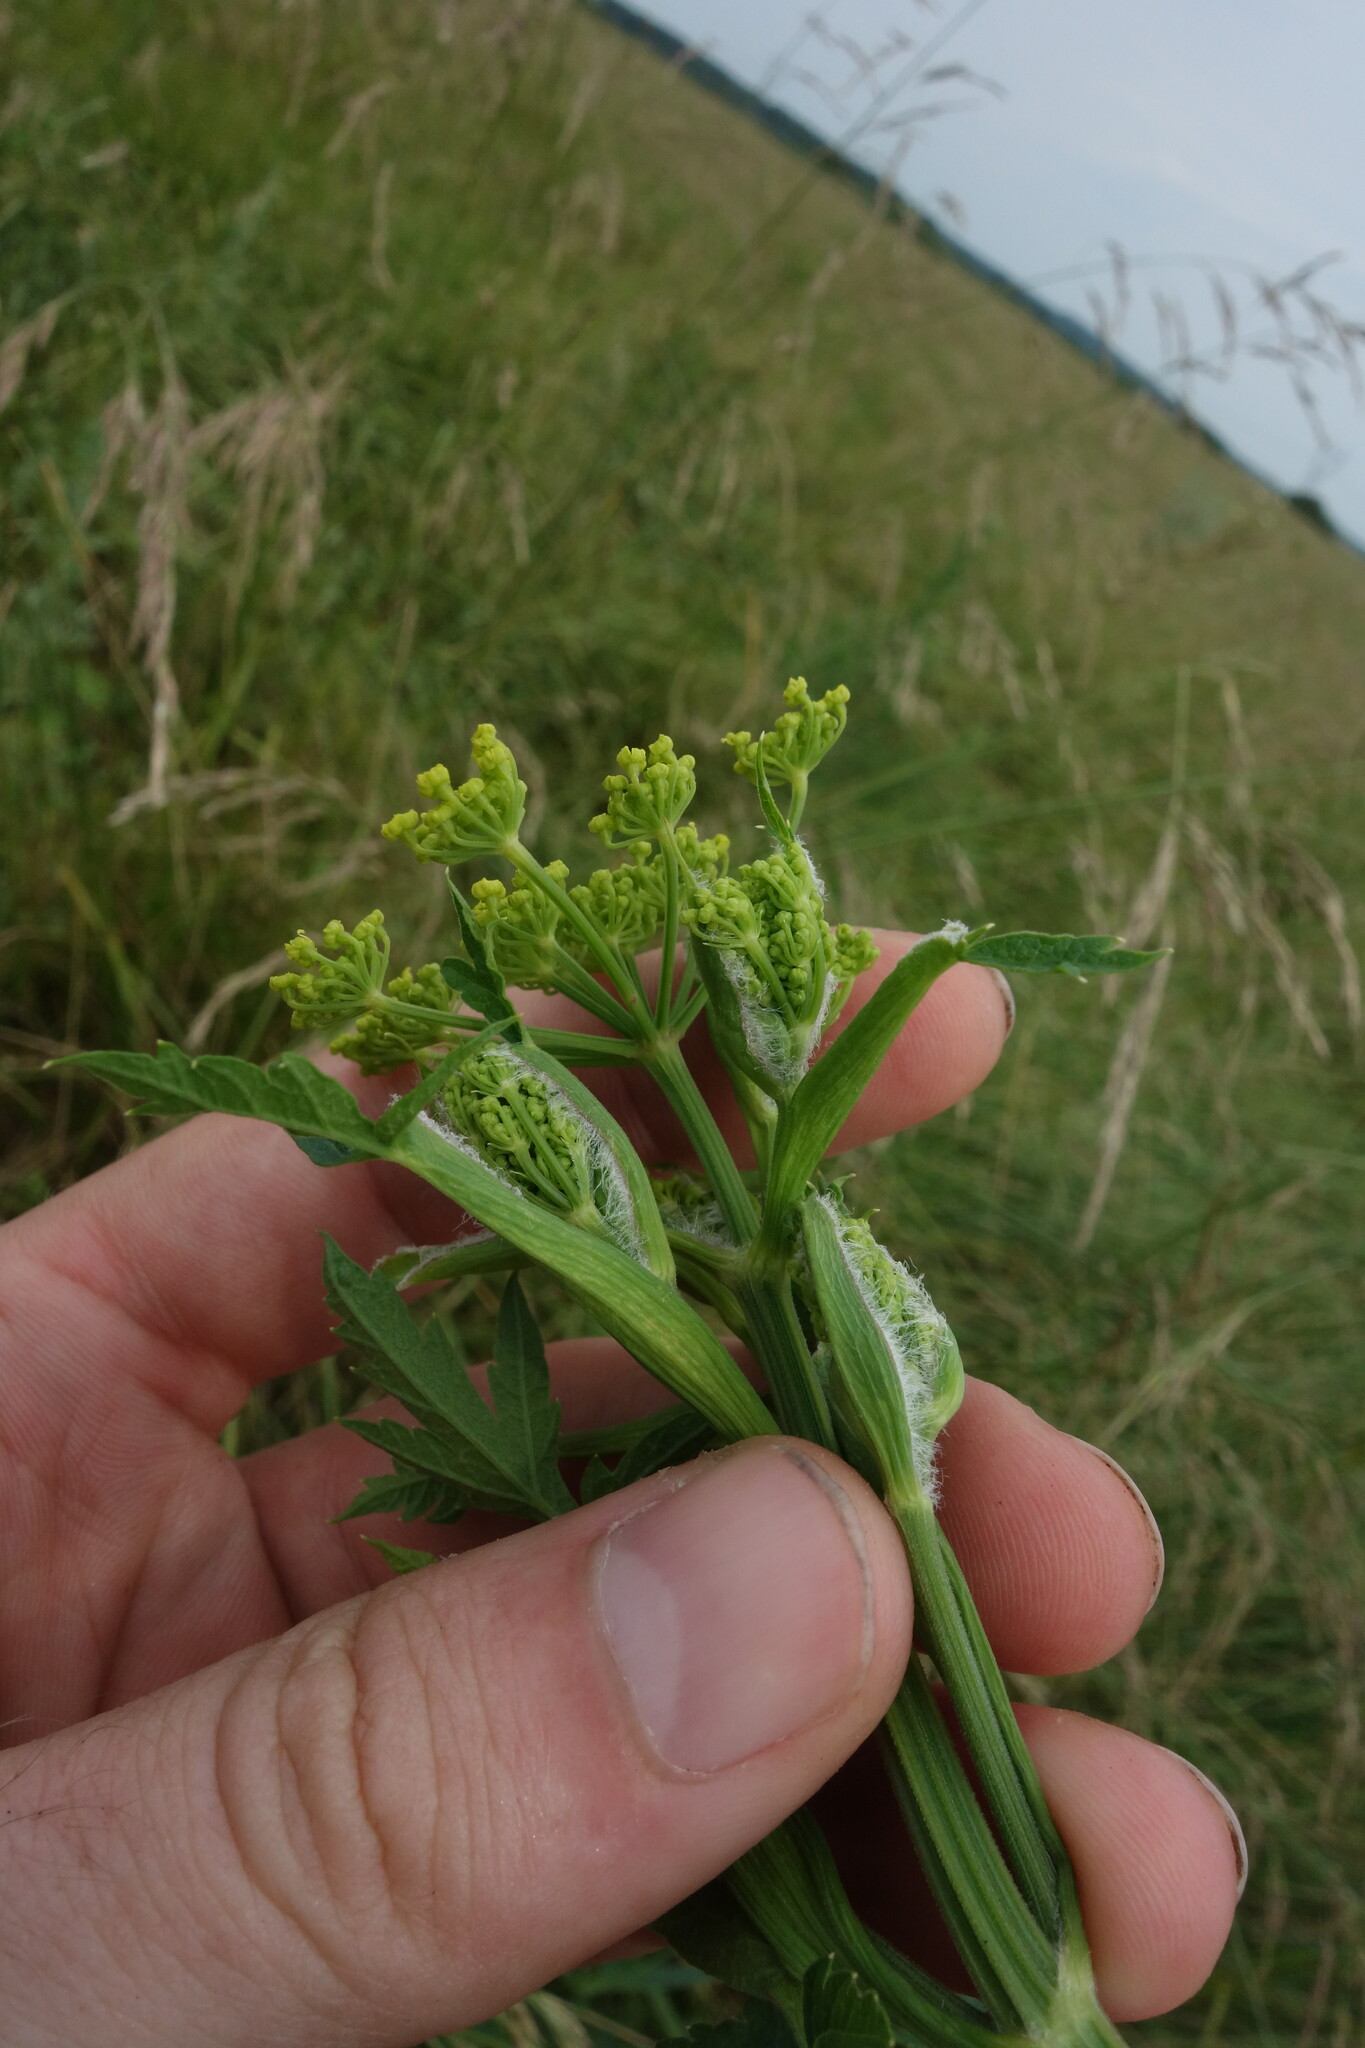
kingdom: Plantae
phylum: Tracheophyta
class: Magnoliopsida
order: Apiales
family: Apiaceae
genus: Pastinaca
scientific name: Pastinaca sativa
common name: Wild parsnip
